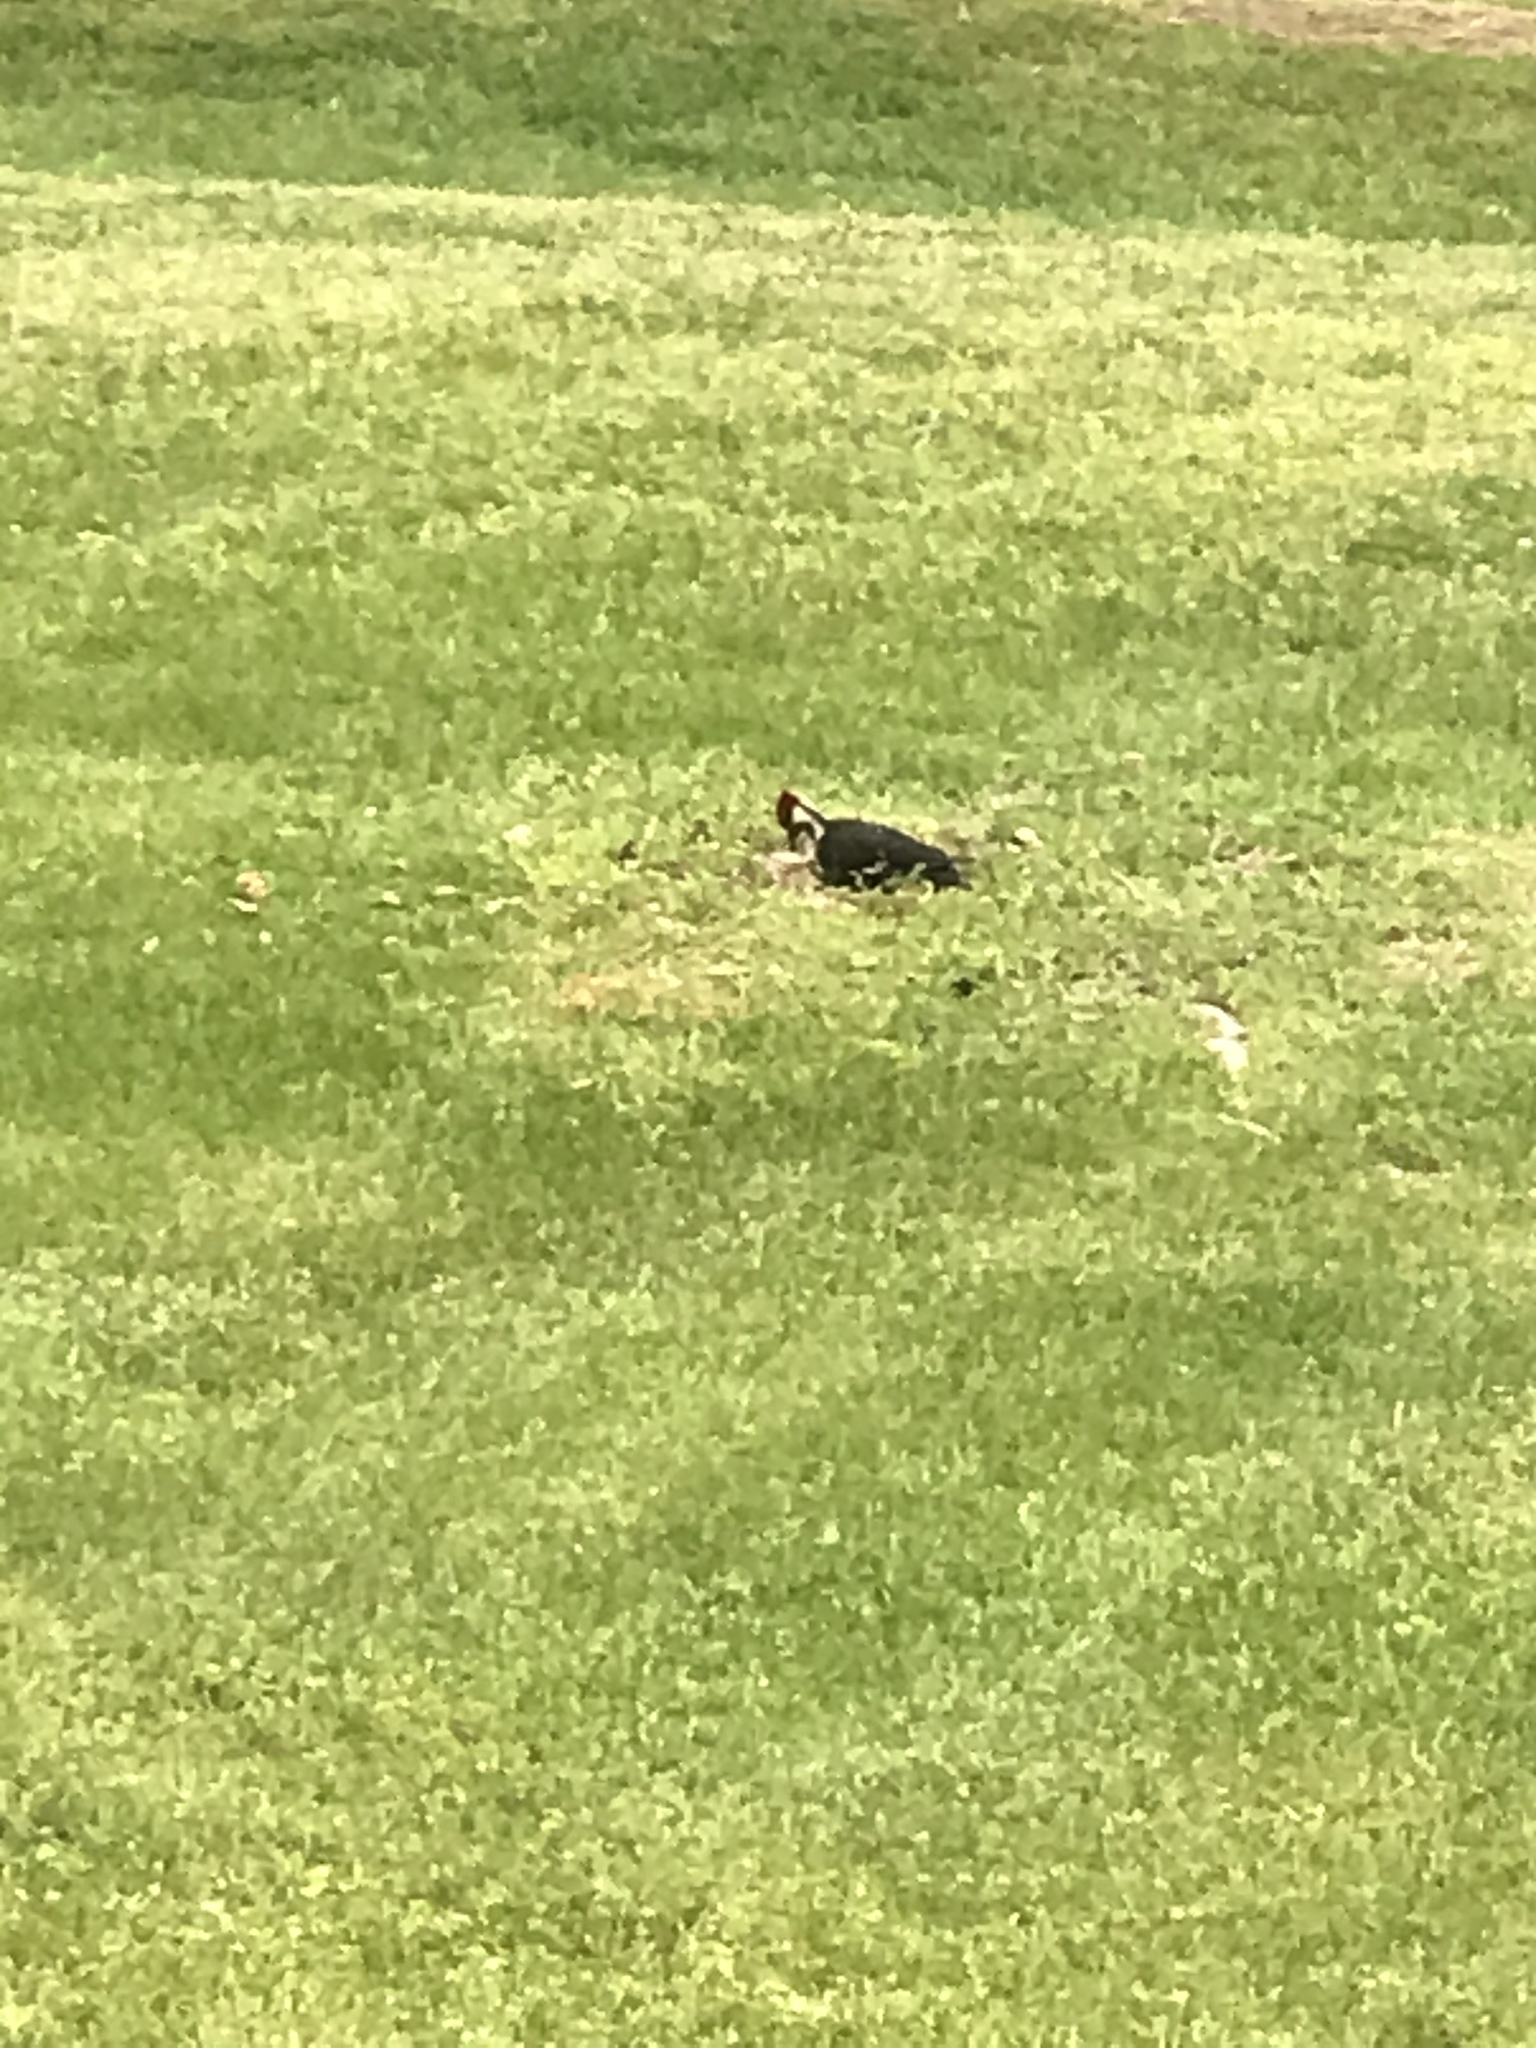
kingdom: Animalia
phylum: Chordata
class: Aves
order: Piciformes
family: Picidae
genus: Dryocopus
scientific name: Dryocopus pileatus
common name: Pileated woodpecker
